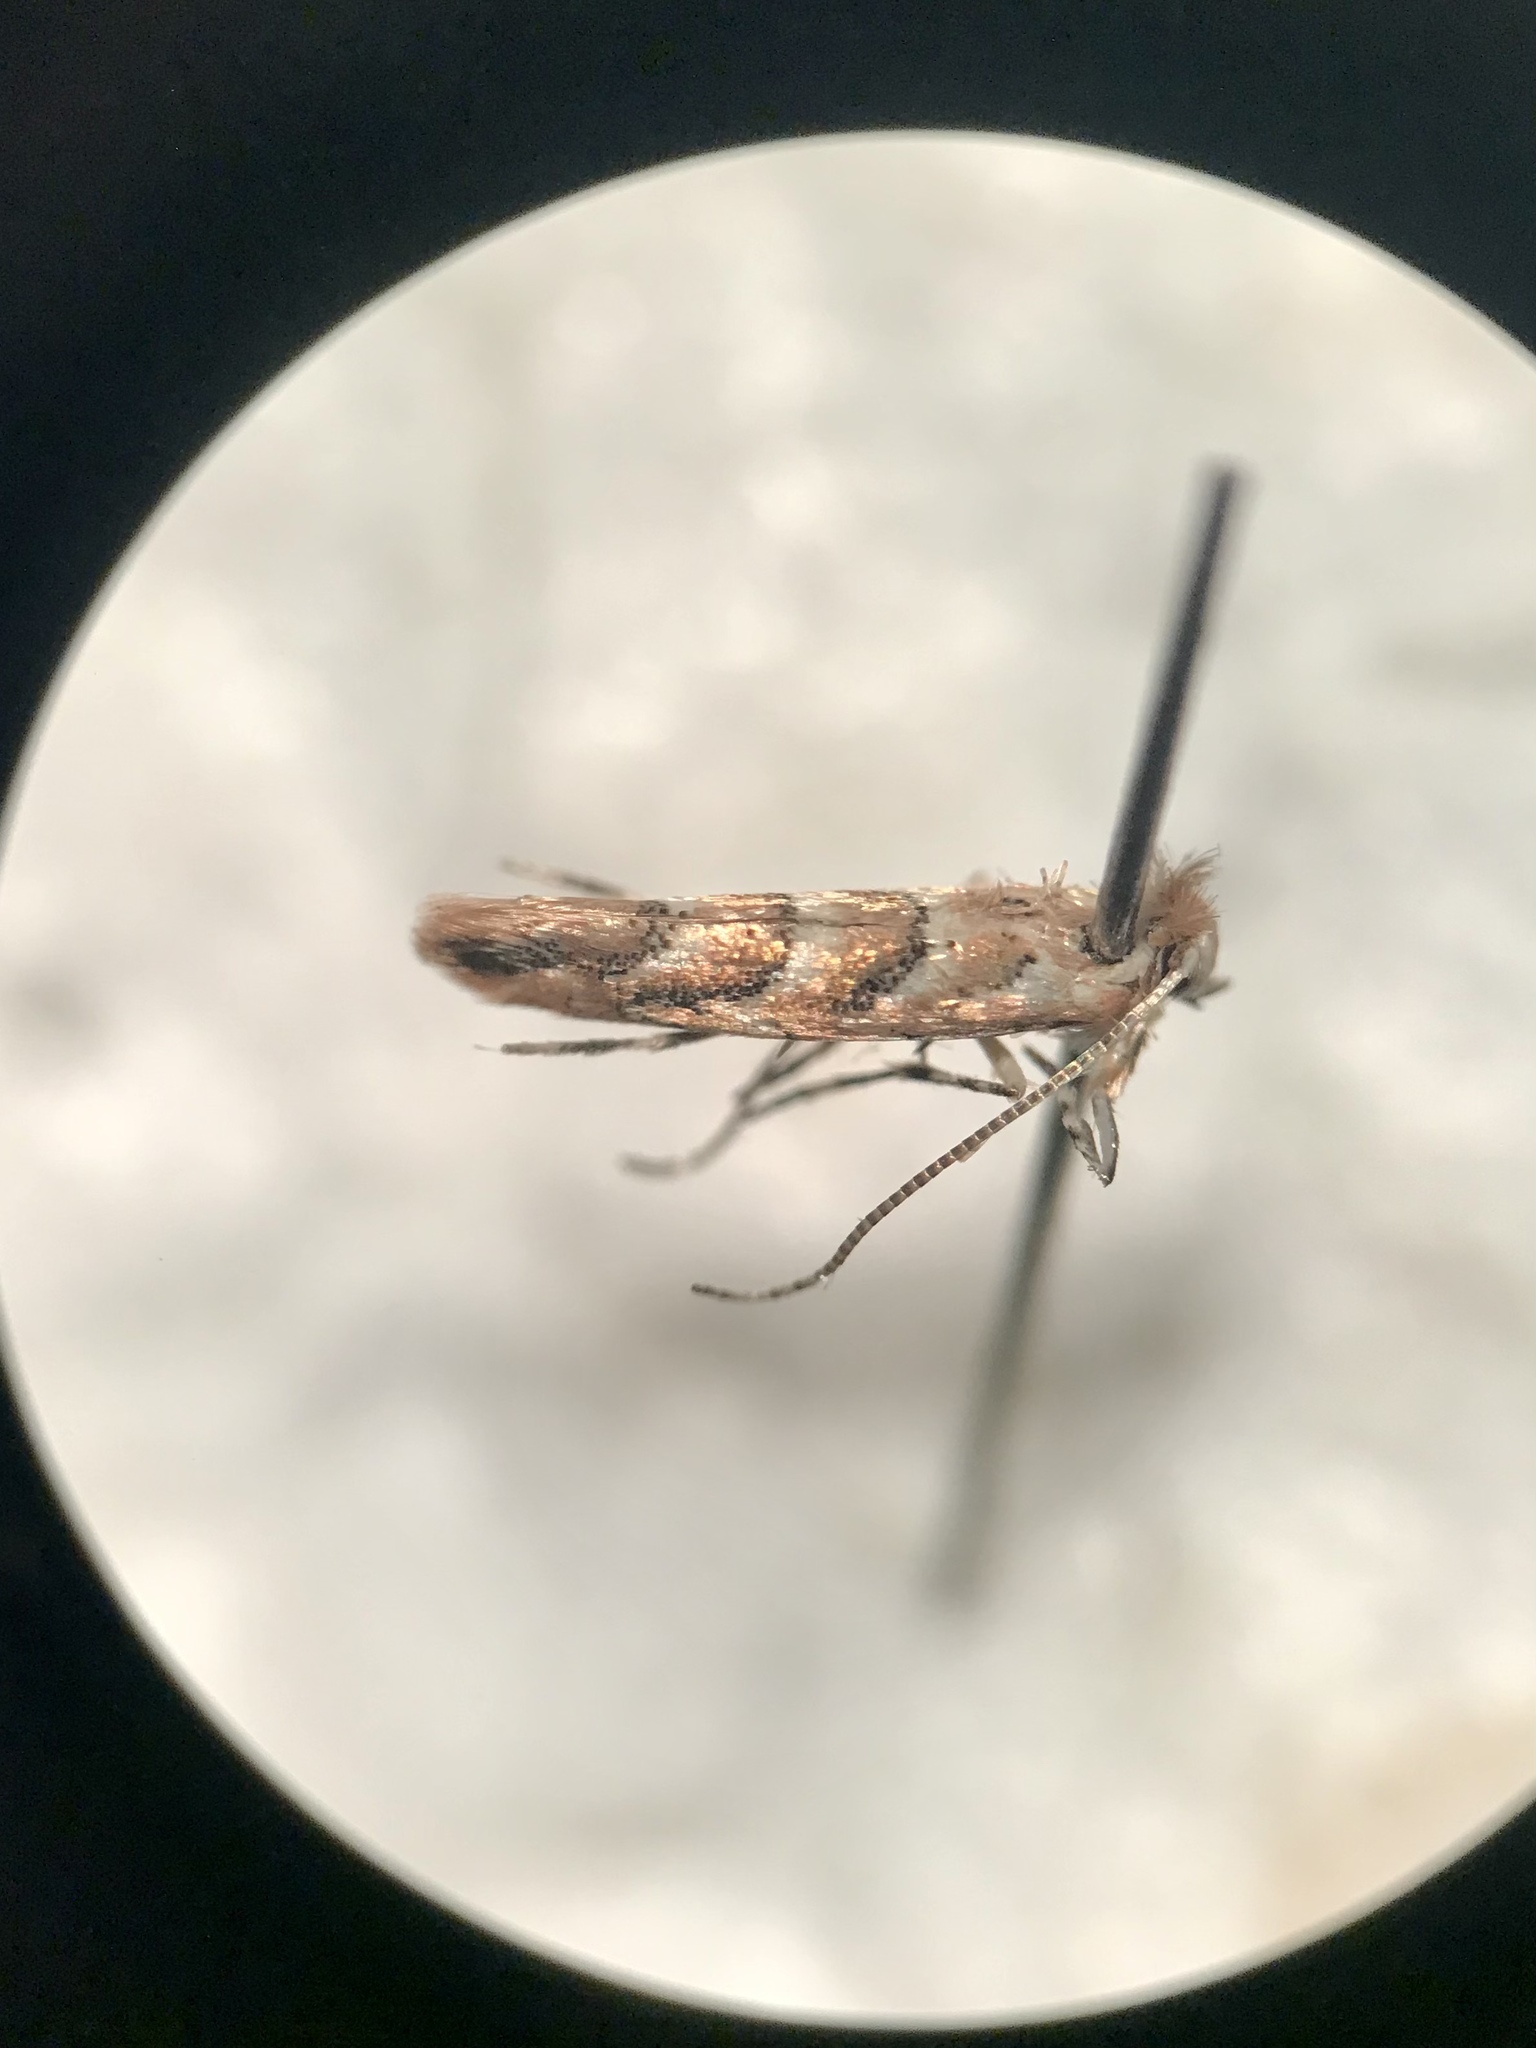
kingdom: Animalia
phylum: Arthropoda
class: Insecta
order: Lepidoptera
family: Gracillariidae
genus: Cameraria
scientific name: Cameraria macrocarpella
